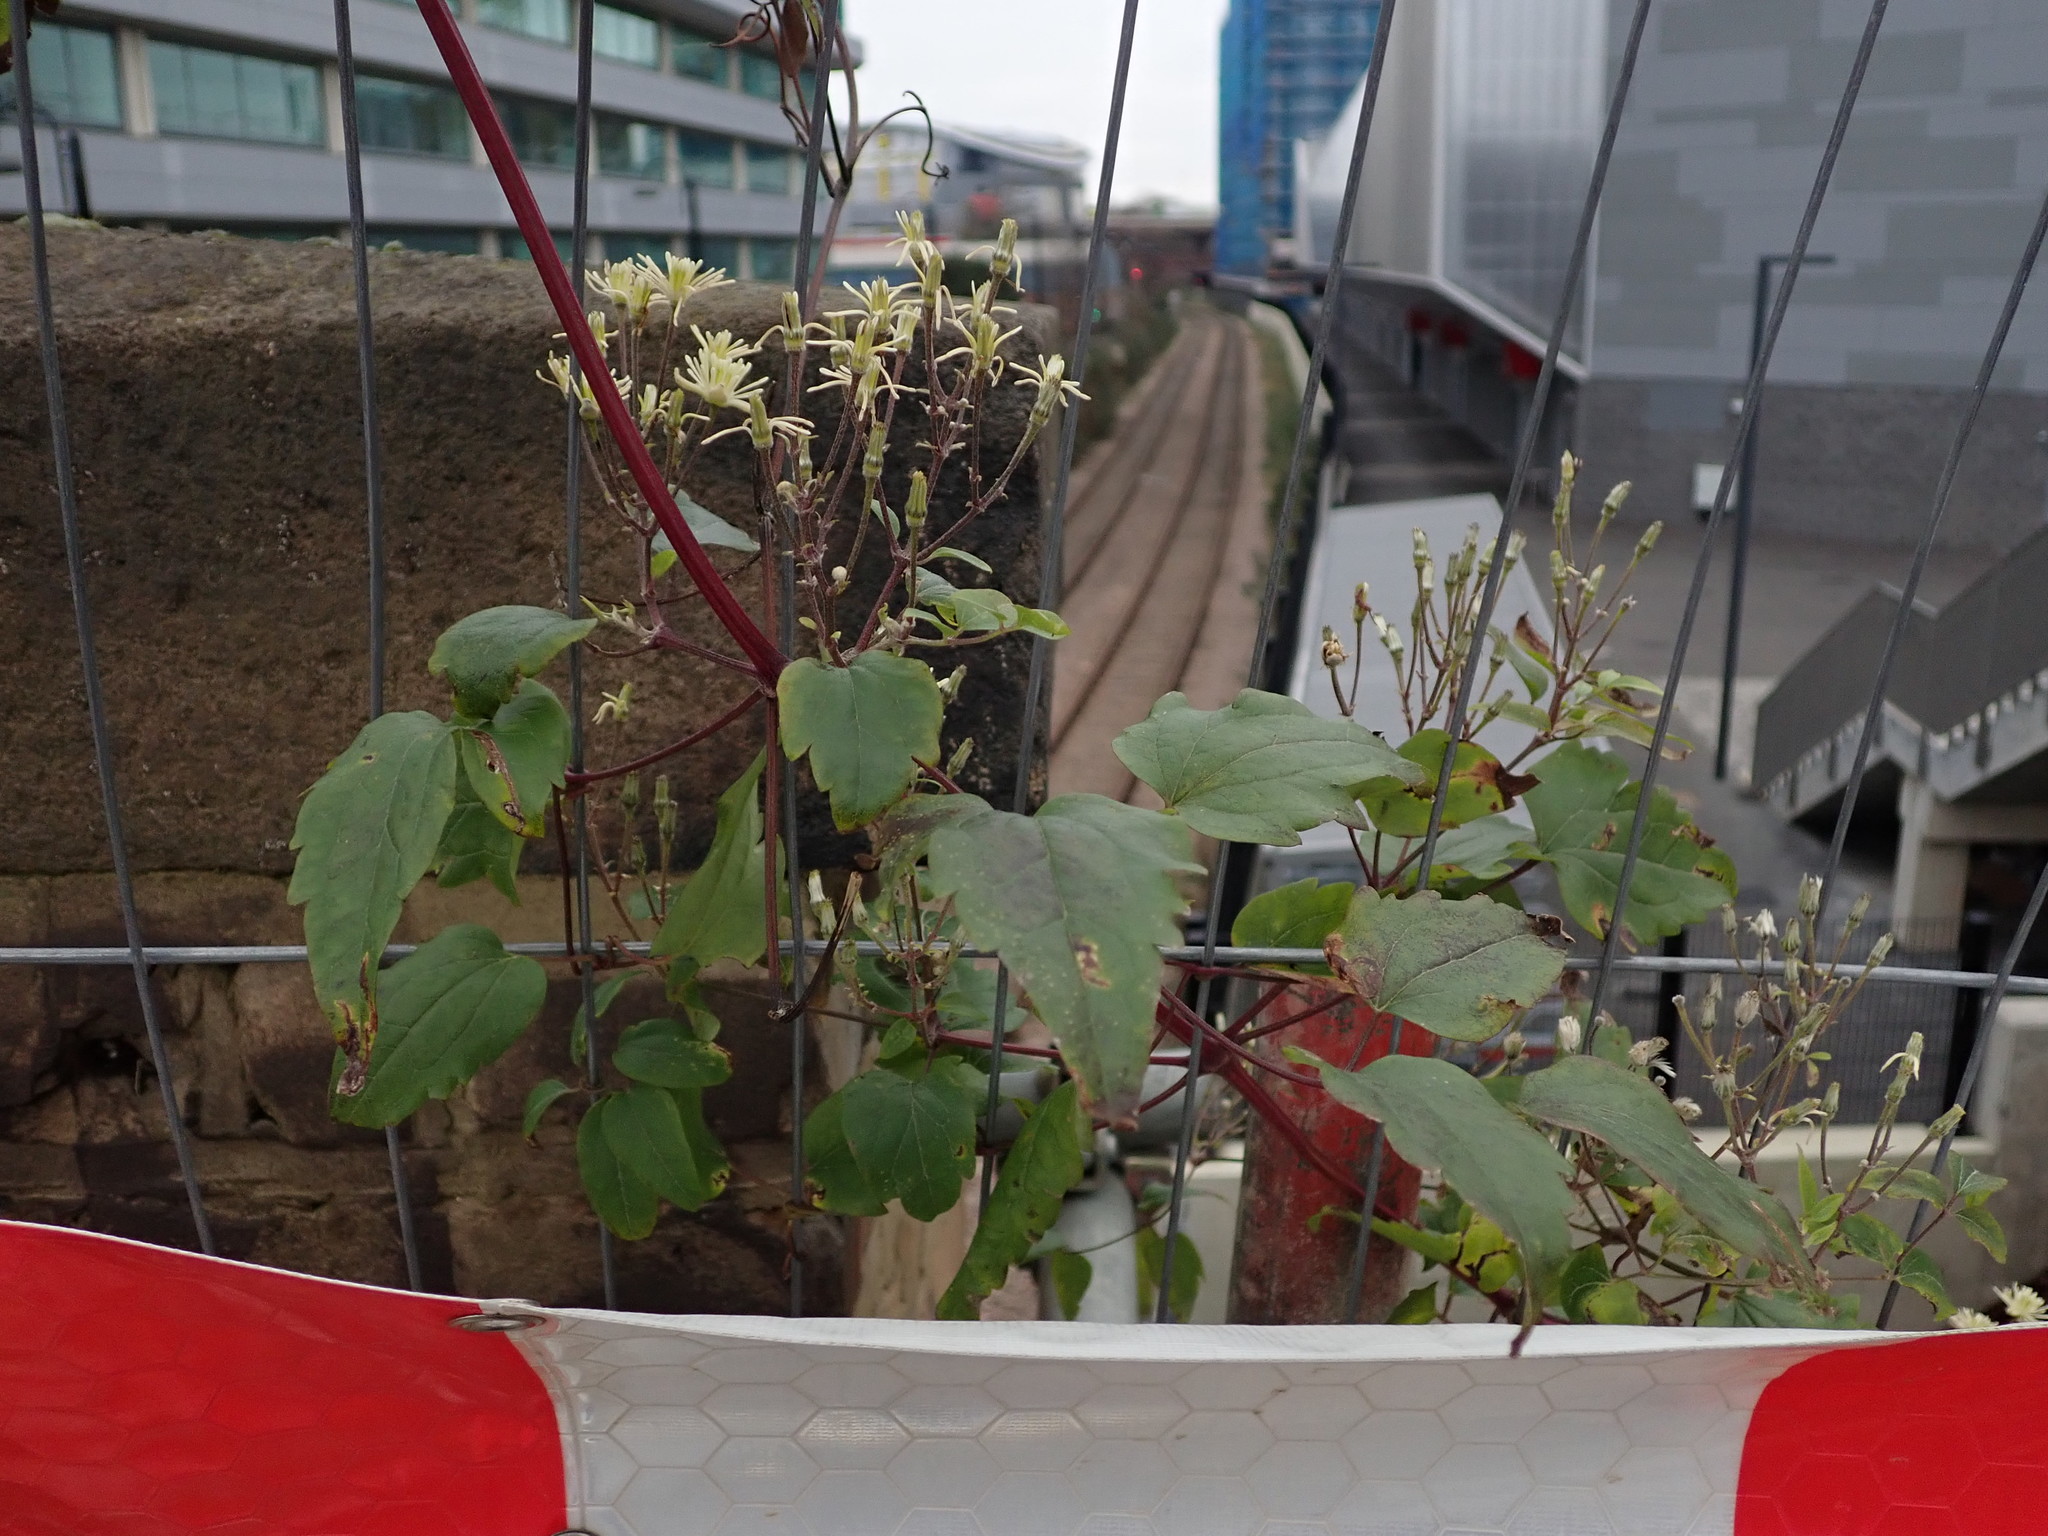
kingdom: Plantae
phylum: Tracheophyta
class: Magnoliopsida
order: Ranunculales
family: Ranunculaceae
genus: Clematis
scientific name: Clematis vitalba
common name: Evergreen clematis
